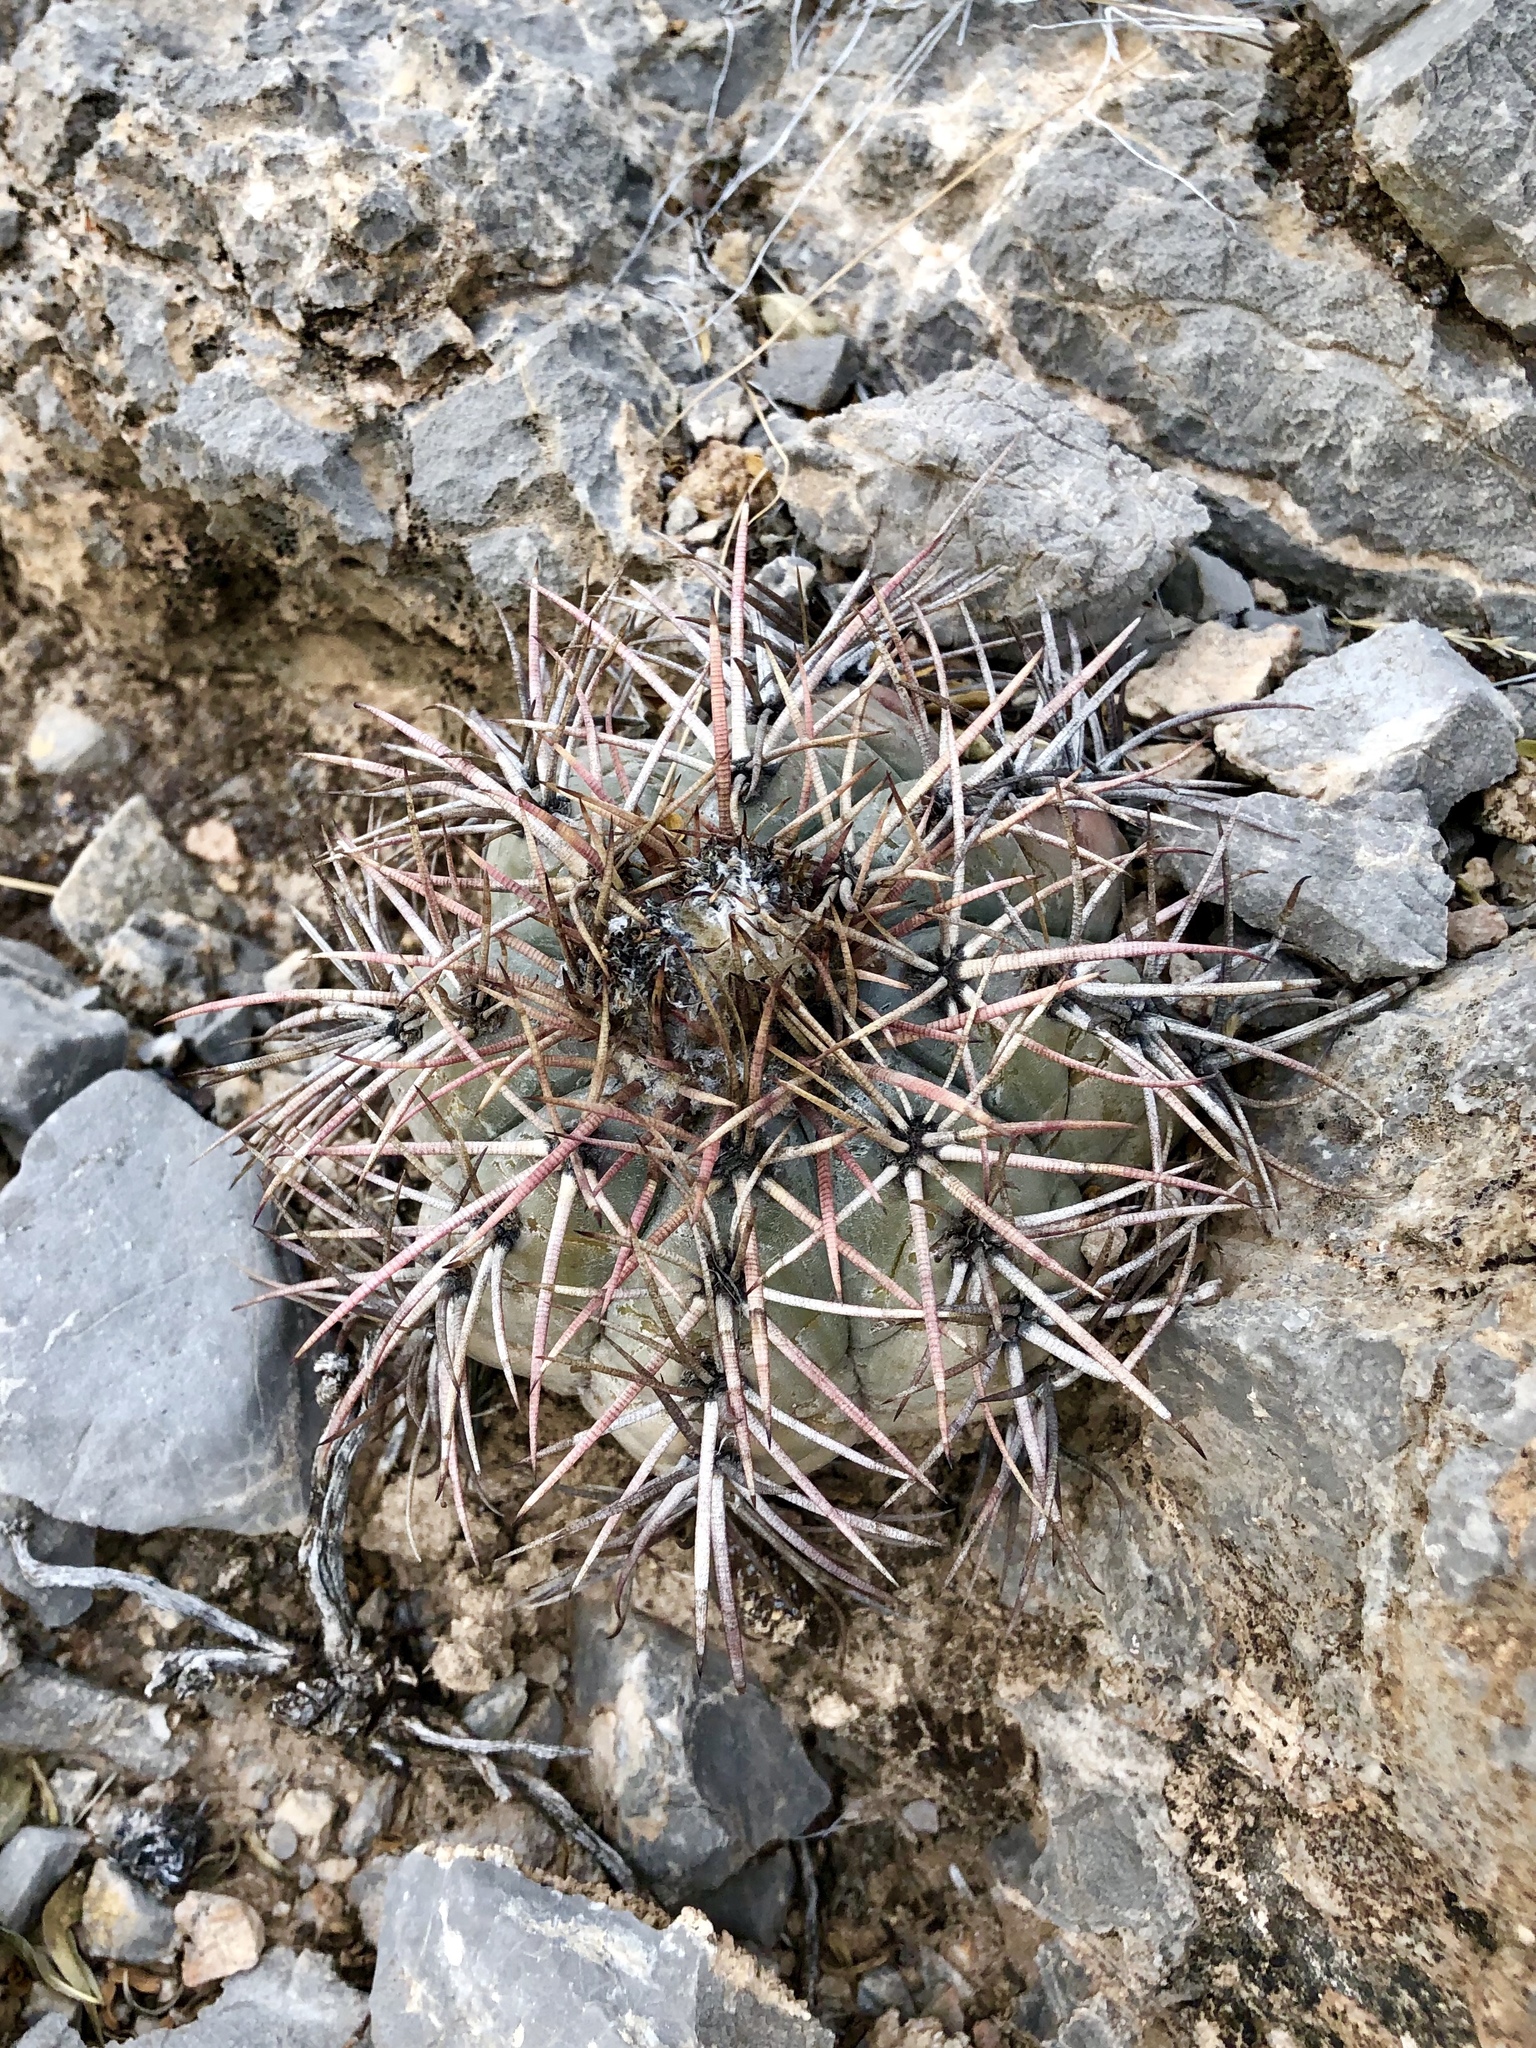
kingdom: Plantae
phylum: Tracheophyta
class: Magnoliopsida
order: Caryophyllales
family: Cactaceae
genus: Echinocactus
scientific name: Echinocactus horizonthalonius
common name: Devilshead
